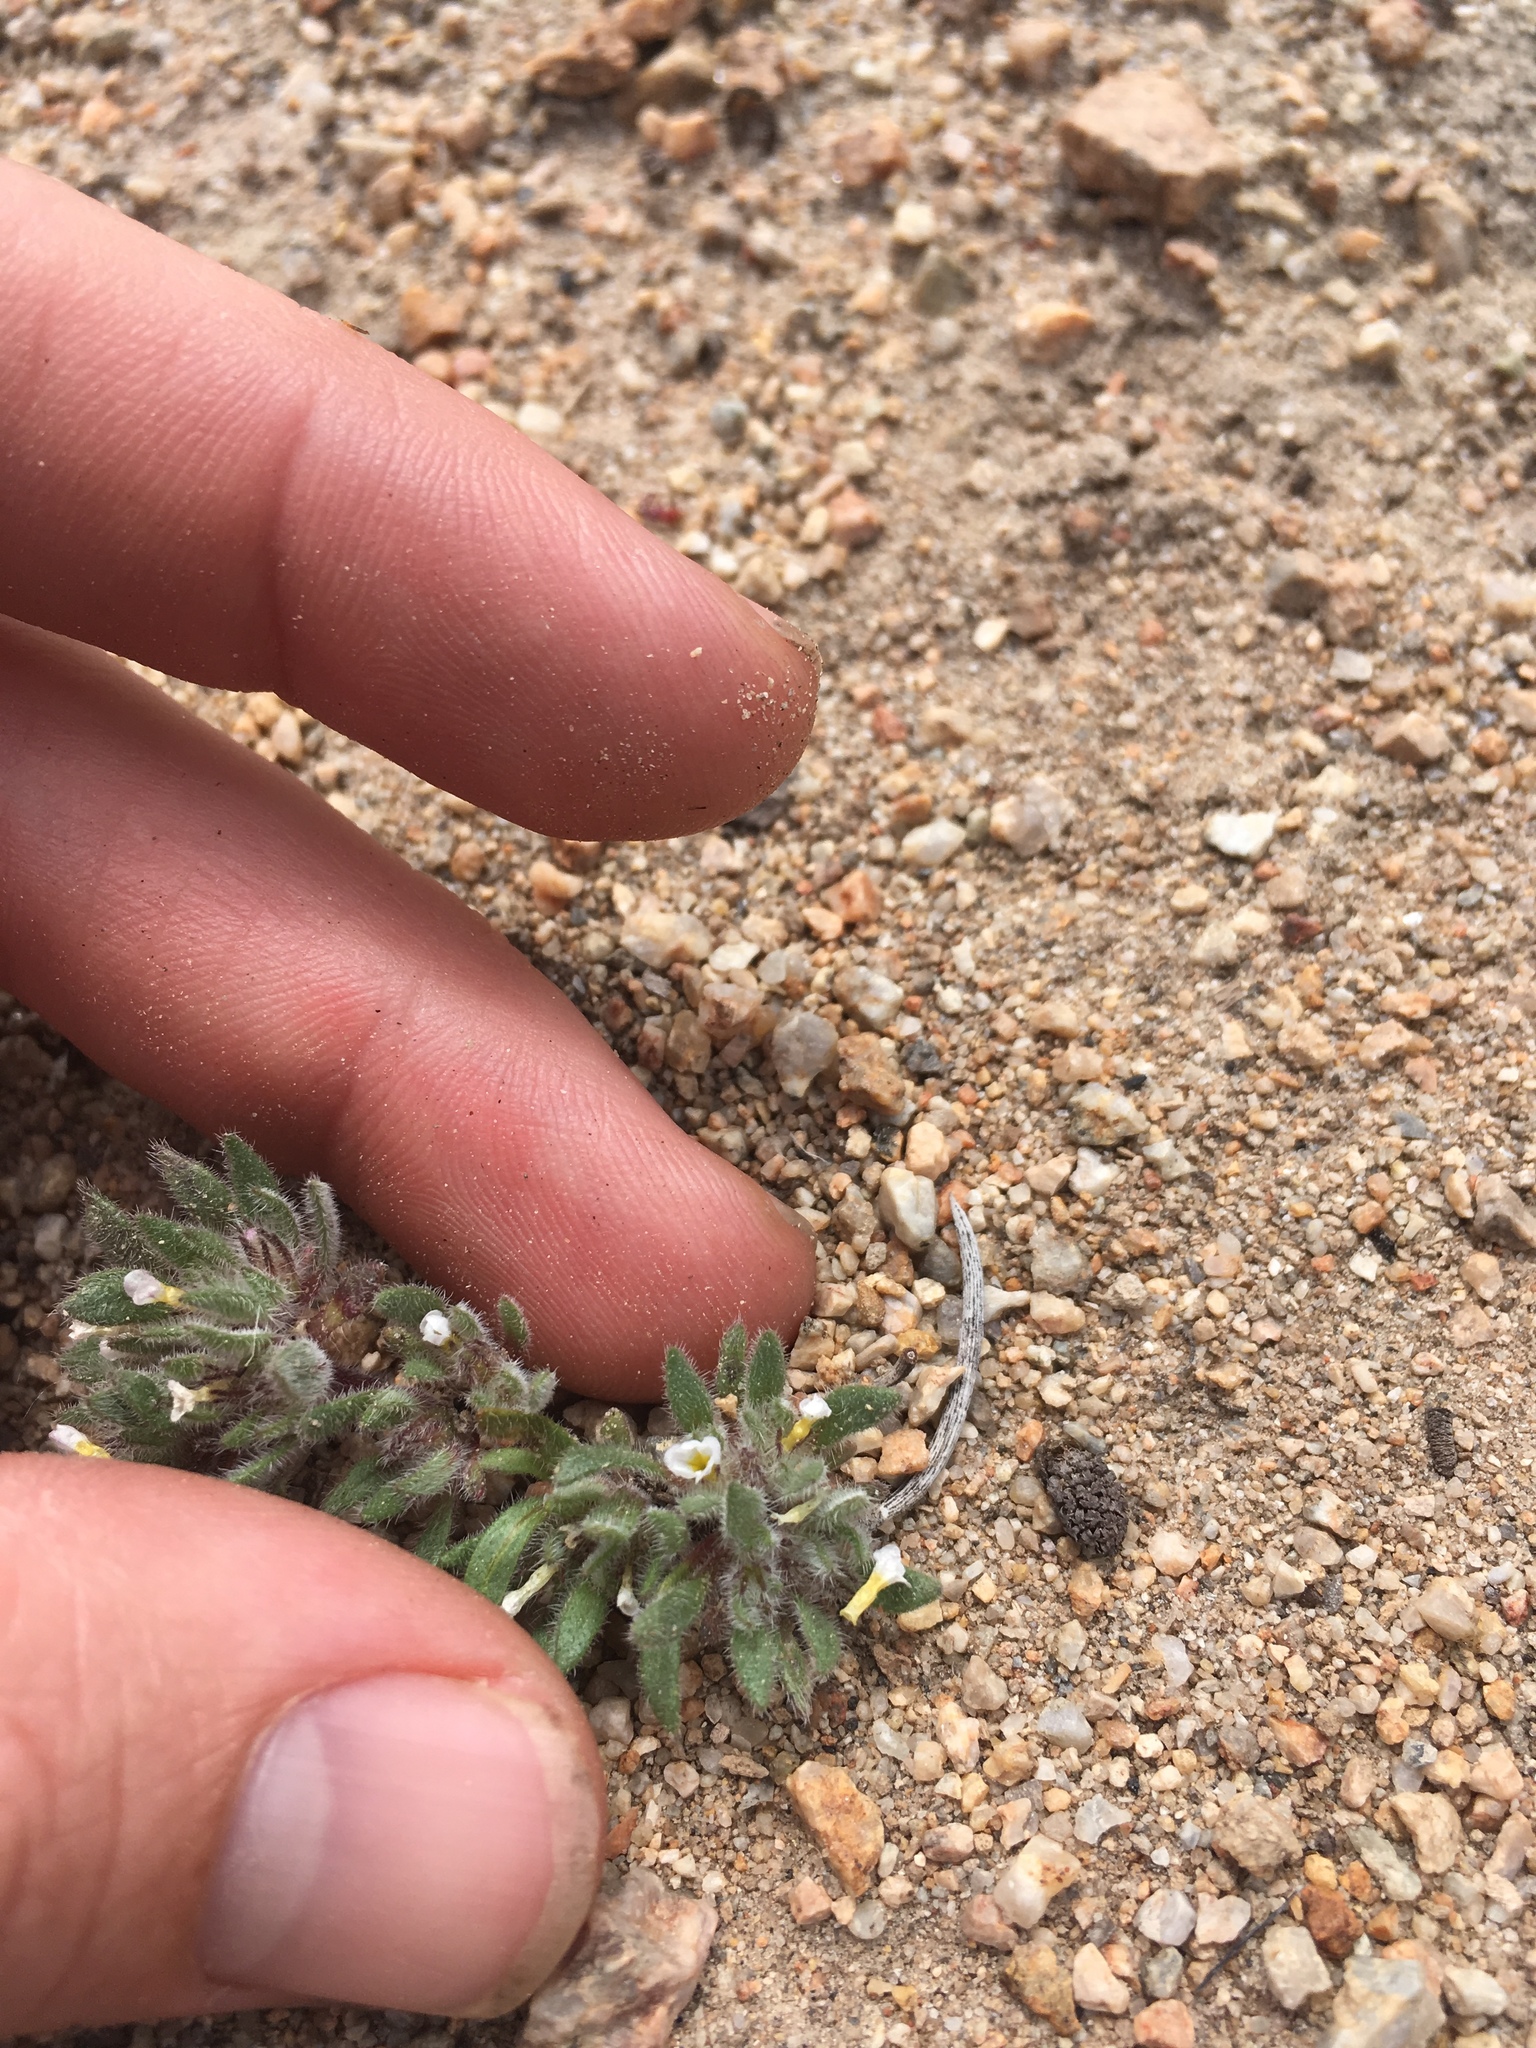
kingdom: Plantae
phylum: Tracheophyta
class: Magnoliopsida
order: Boraginales
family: Namaceae
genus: Nama
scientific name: Nama densa
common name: Leafy nama
